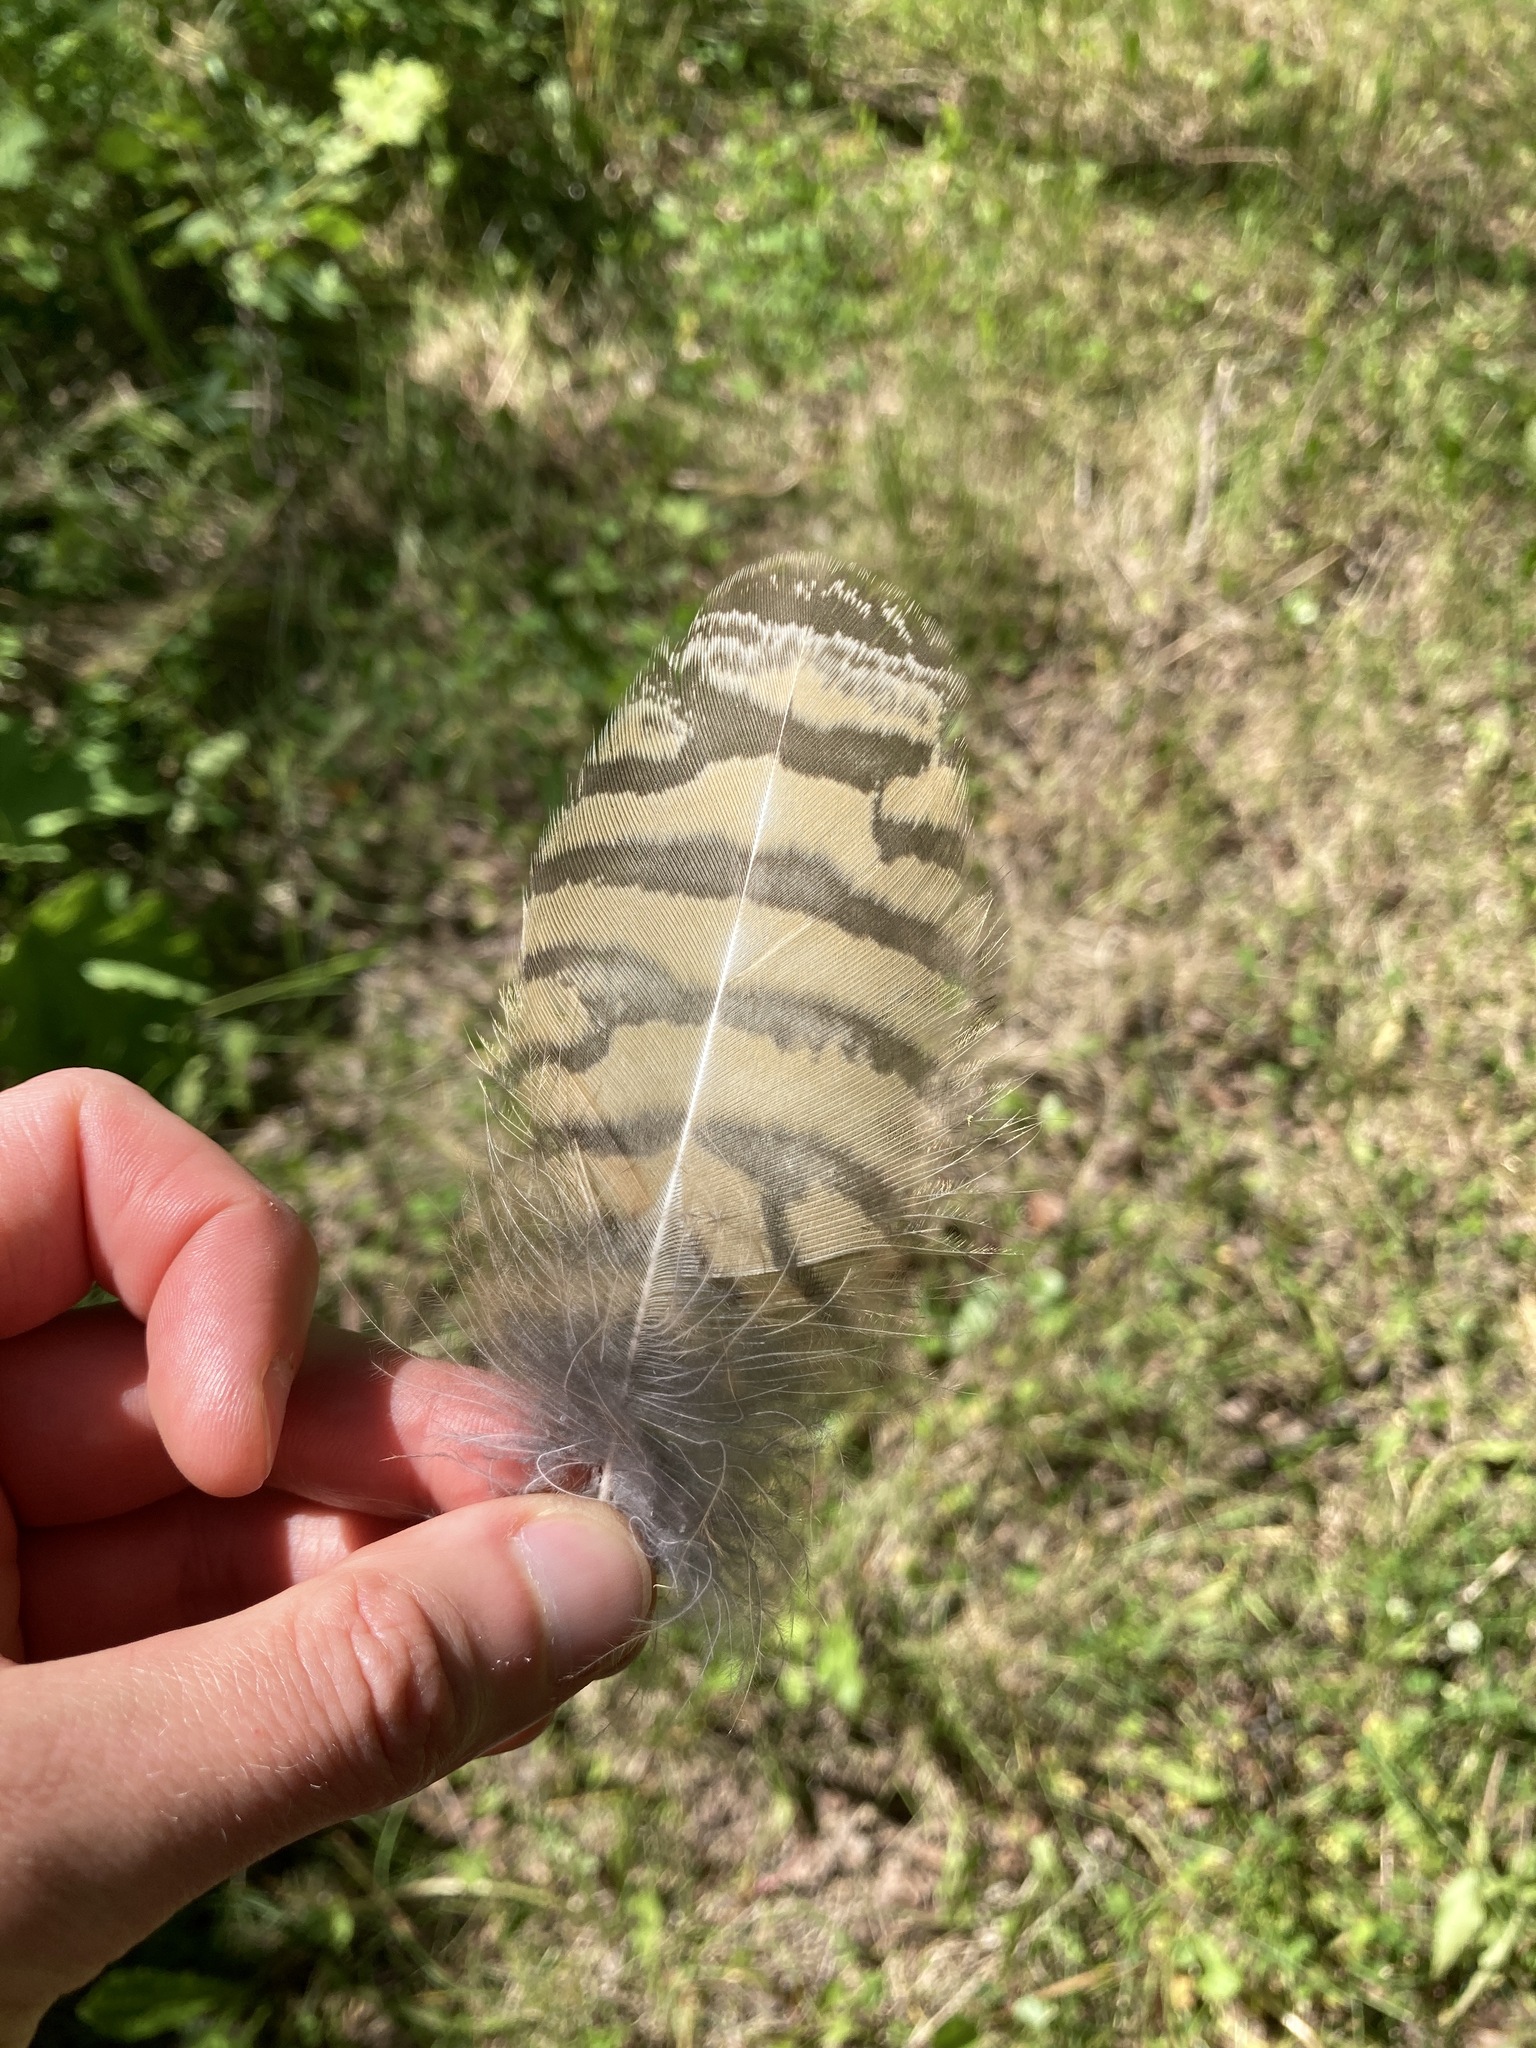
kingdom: Animalia
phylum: Chordata
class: Aves
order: Strigiformes
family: Strigidae
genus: Bubo
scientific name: Bubo virginianus
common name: Great horned owl
